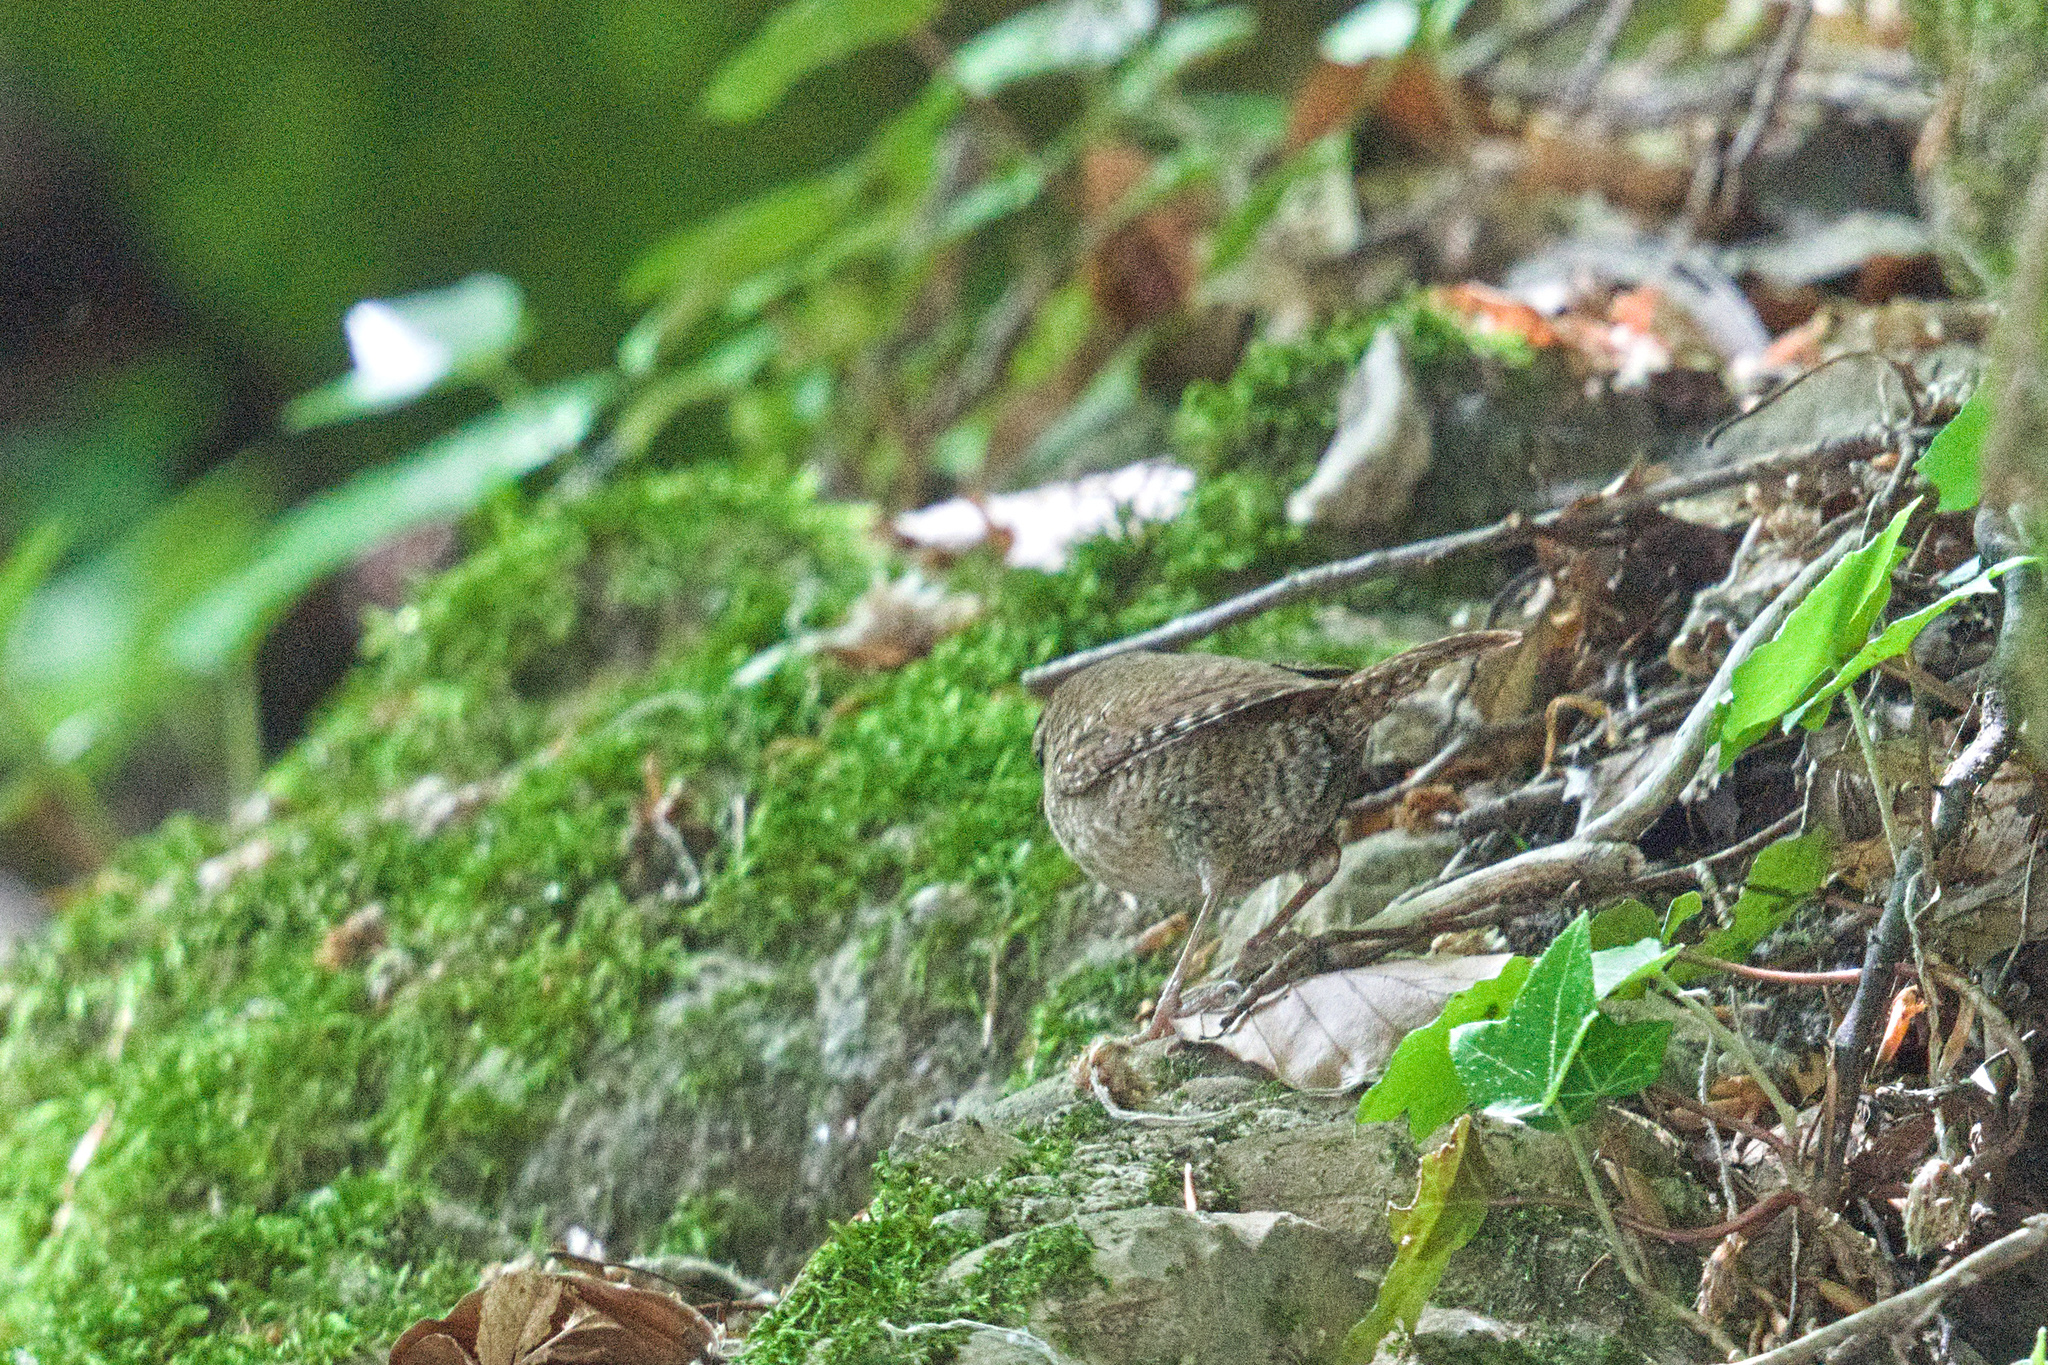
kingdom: Animalia
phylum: Chordata
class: Aves
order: Passeriformes
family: Troglodytidae
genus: Troglodytes
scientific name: Troglodytes troglodytes
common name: Eurasian wren
